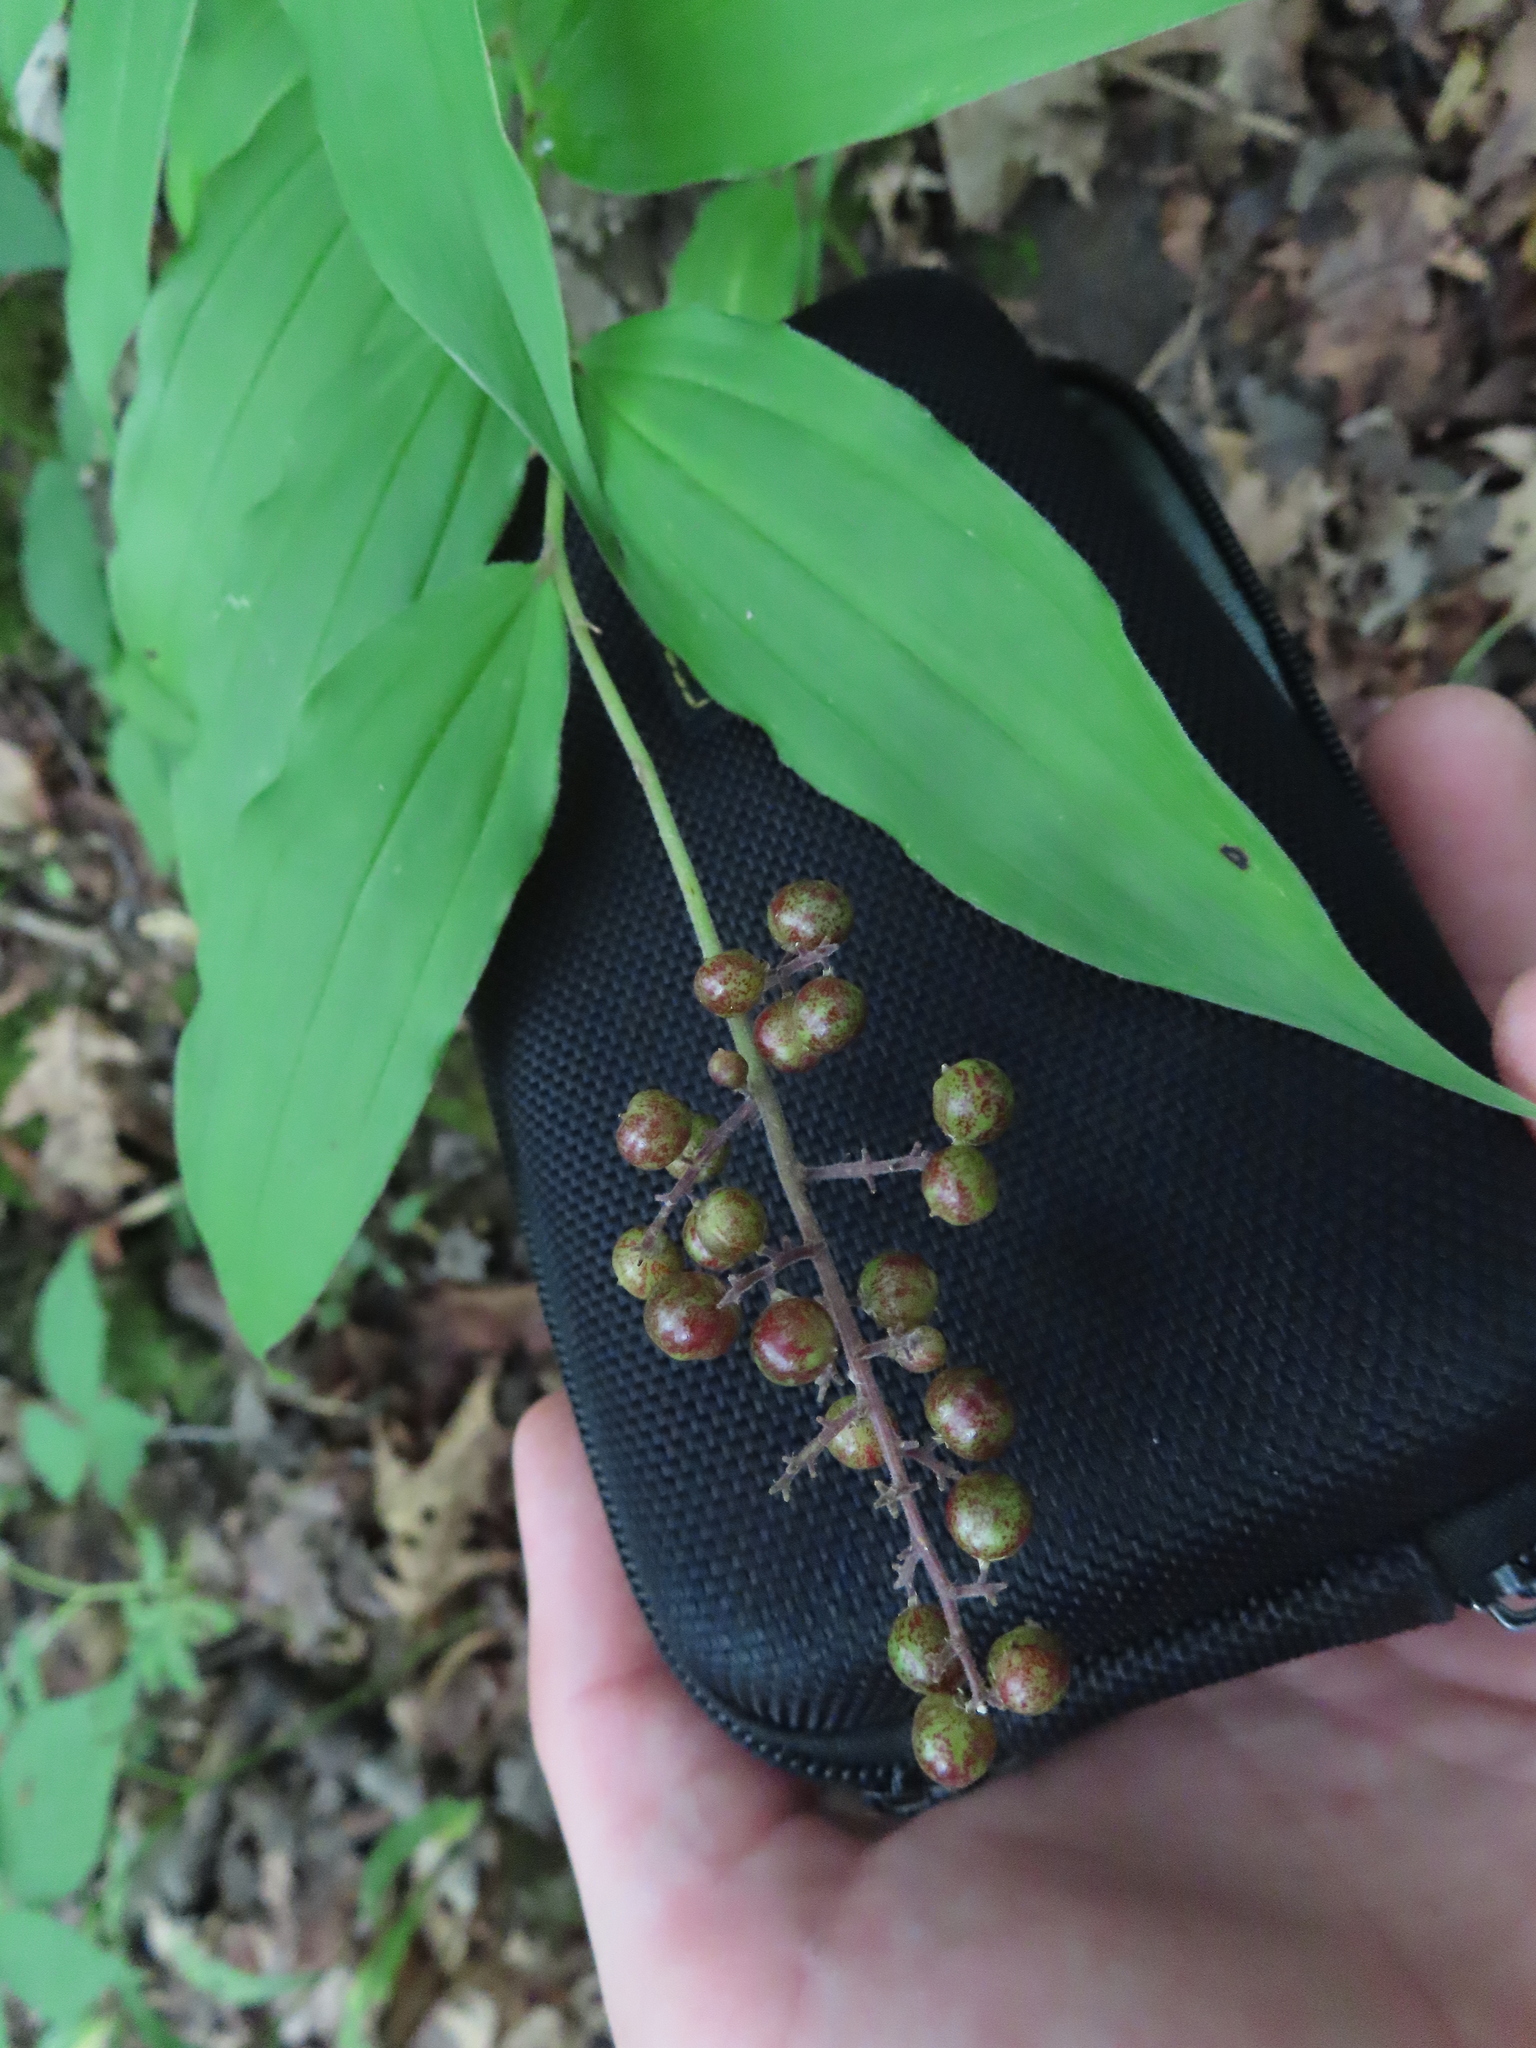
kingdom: Plantae
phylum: Tracheophyta
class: Liliopsida
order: Asparagales
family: Asparagaceae
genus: Maianthemum
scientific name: Maianthemum racemosum
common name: False spikenard
